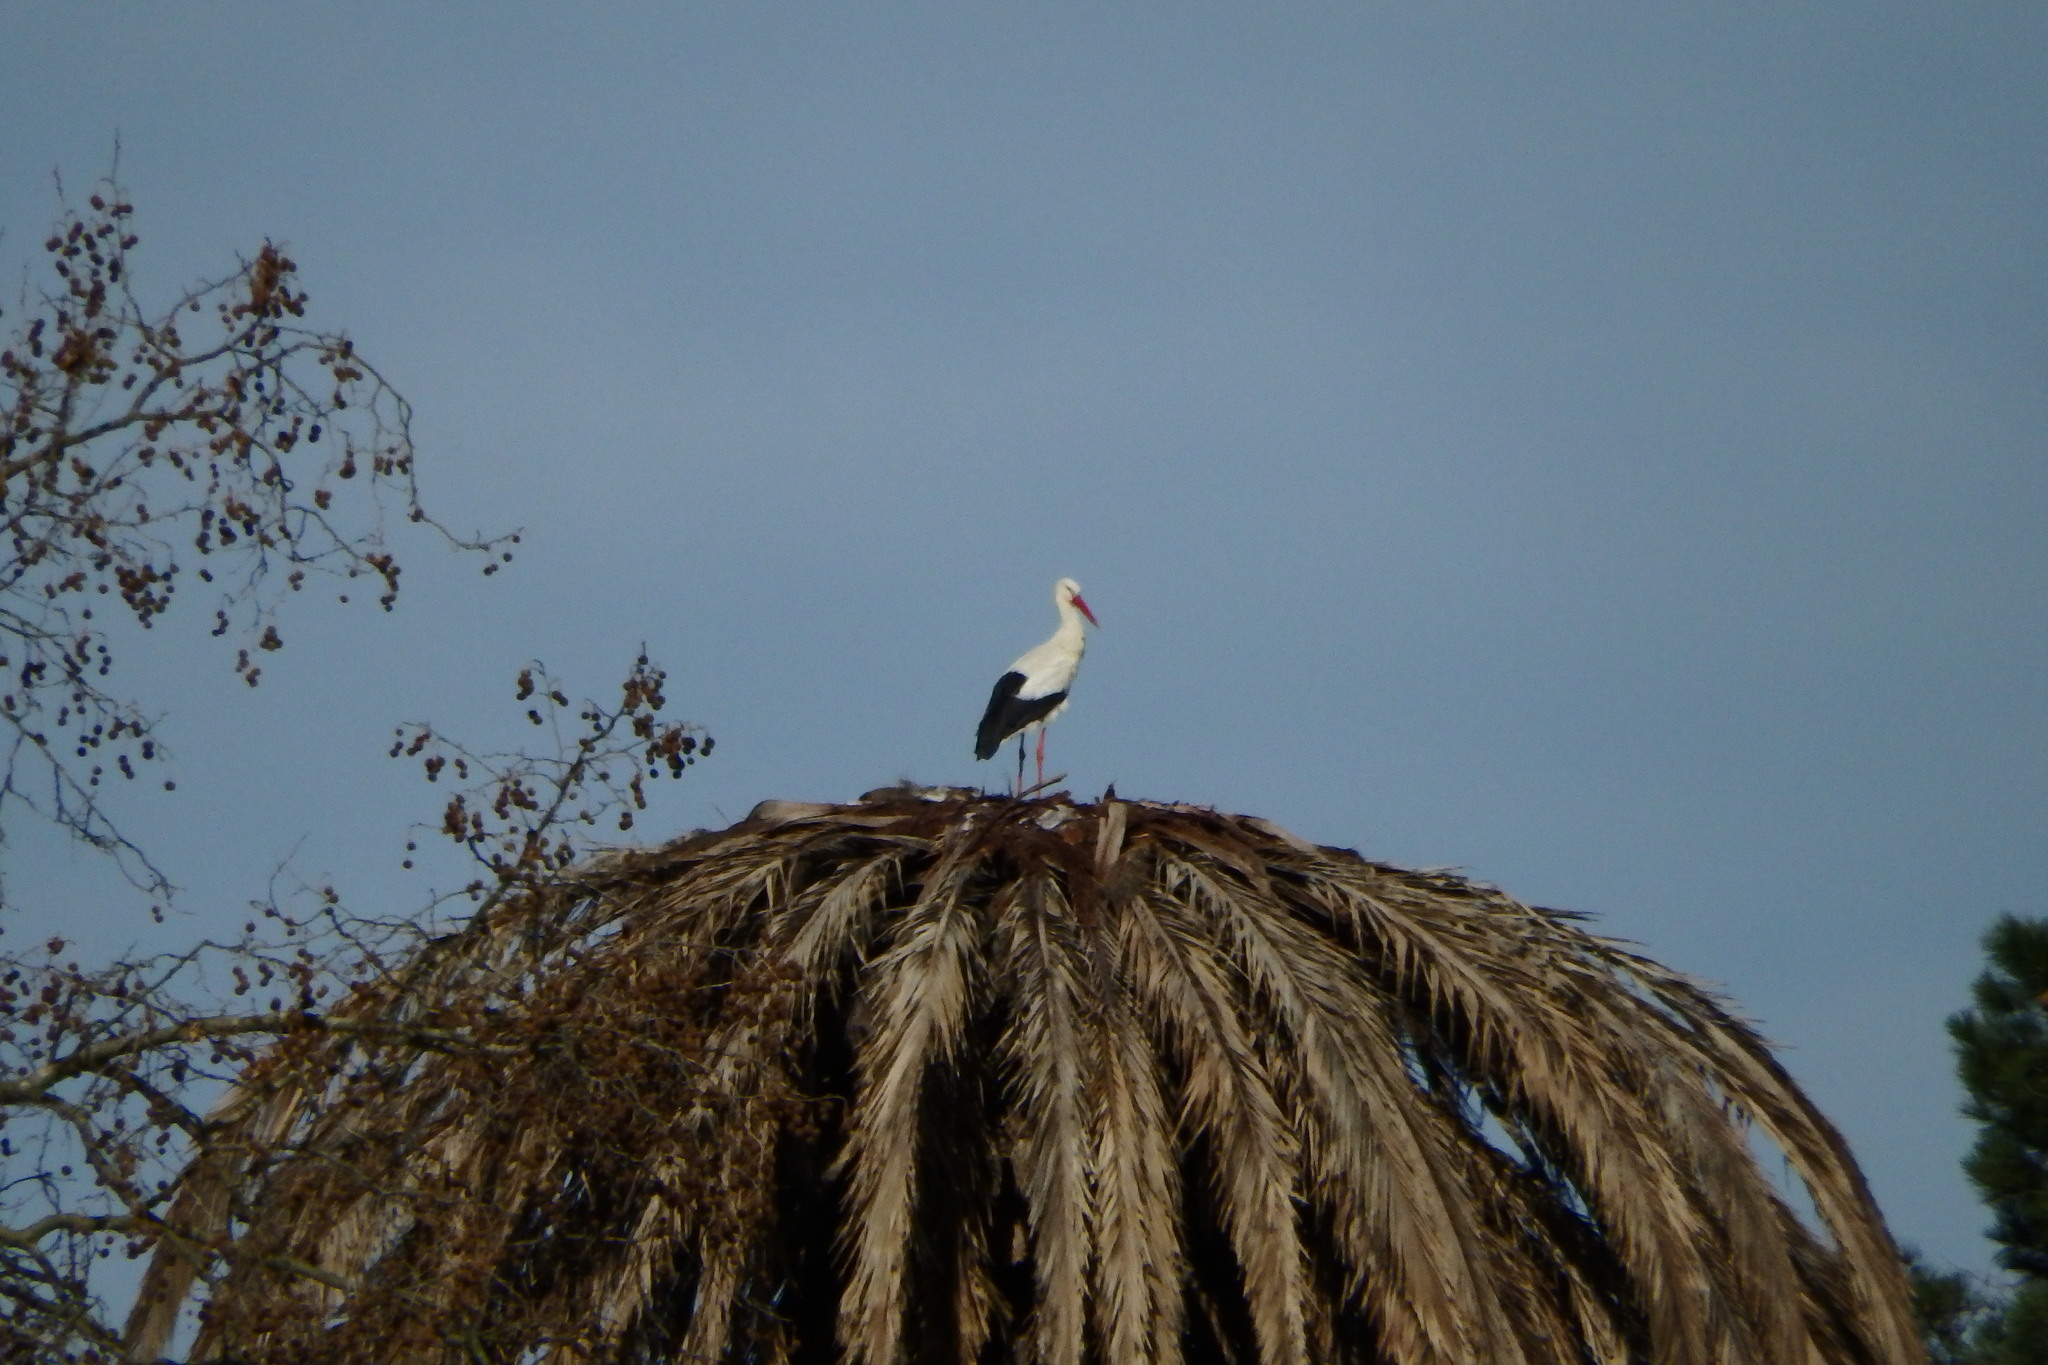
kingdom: Animalia
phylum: Chordata
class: Aves
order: Ciconiiformes
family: Ciconiidae
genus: Ciconia
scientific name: Ciconia ciconia
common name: White stork
